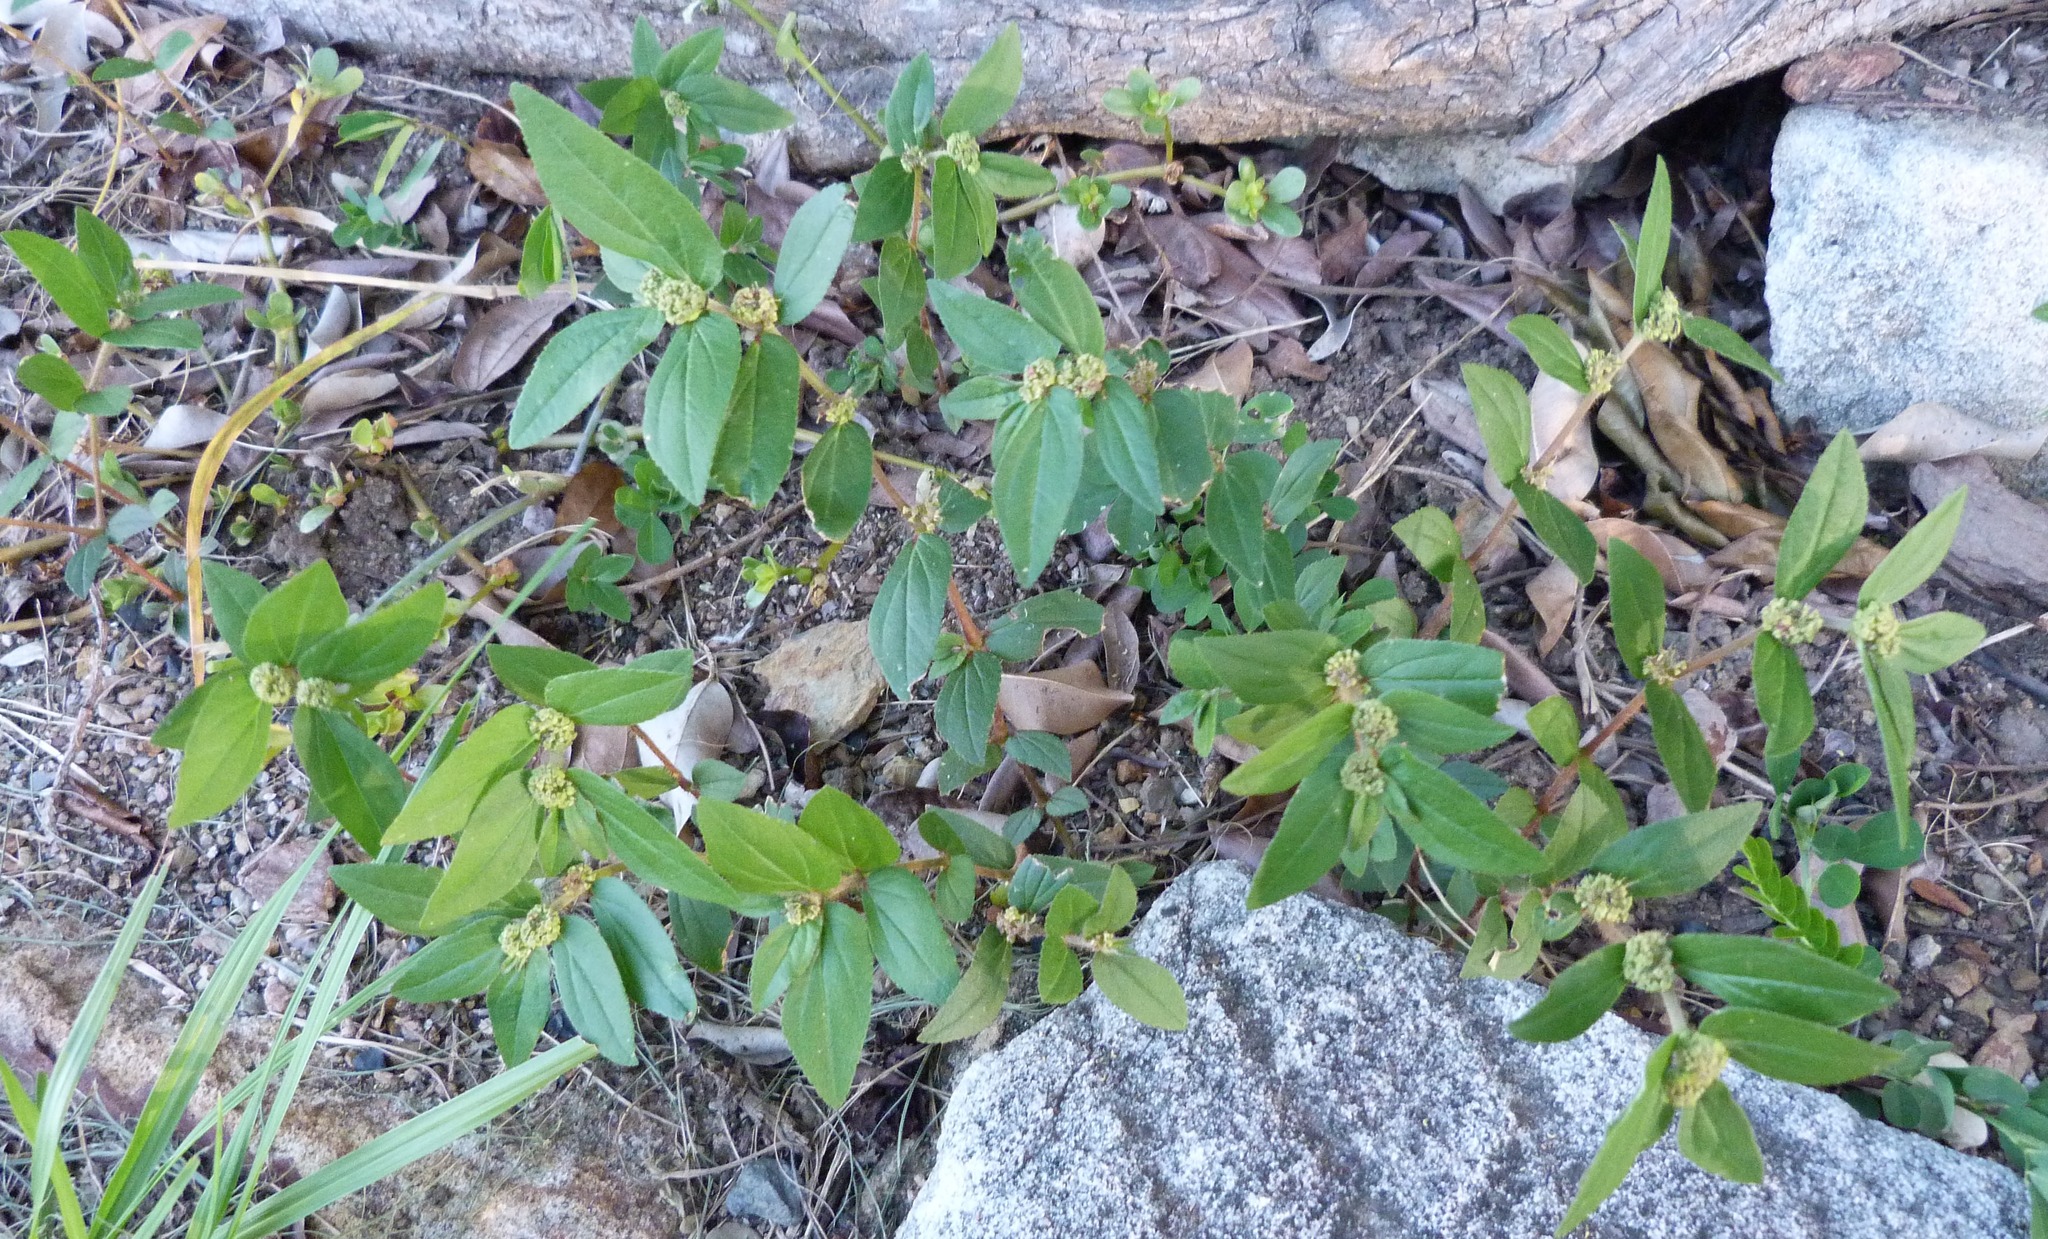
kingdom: Plantae
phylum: Tracheophyta
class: Magnoliopsida
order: Malpighiales
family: Euphorbiaceae
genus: Euphorbia
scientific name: Euphorbia hirta
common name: Pillpod sandmat
